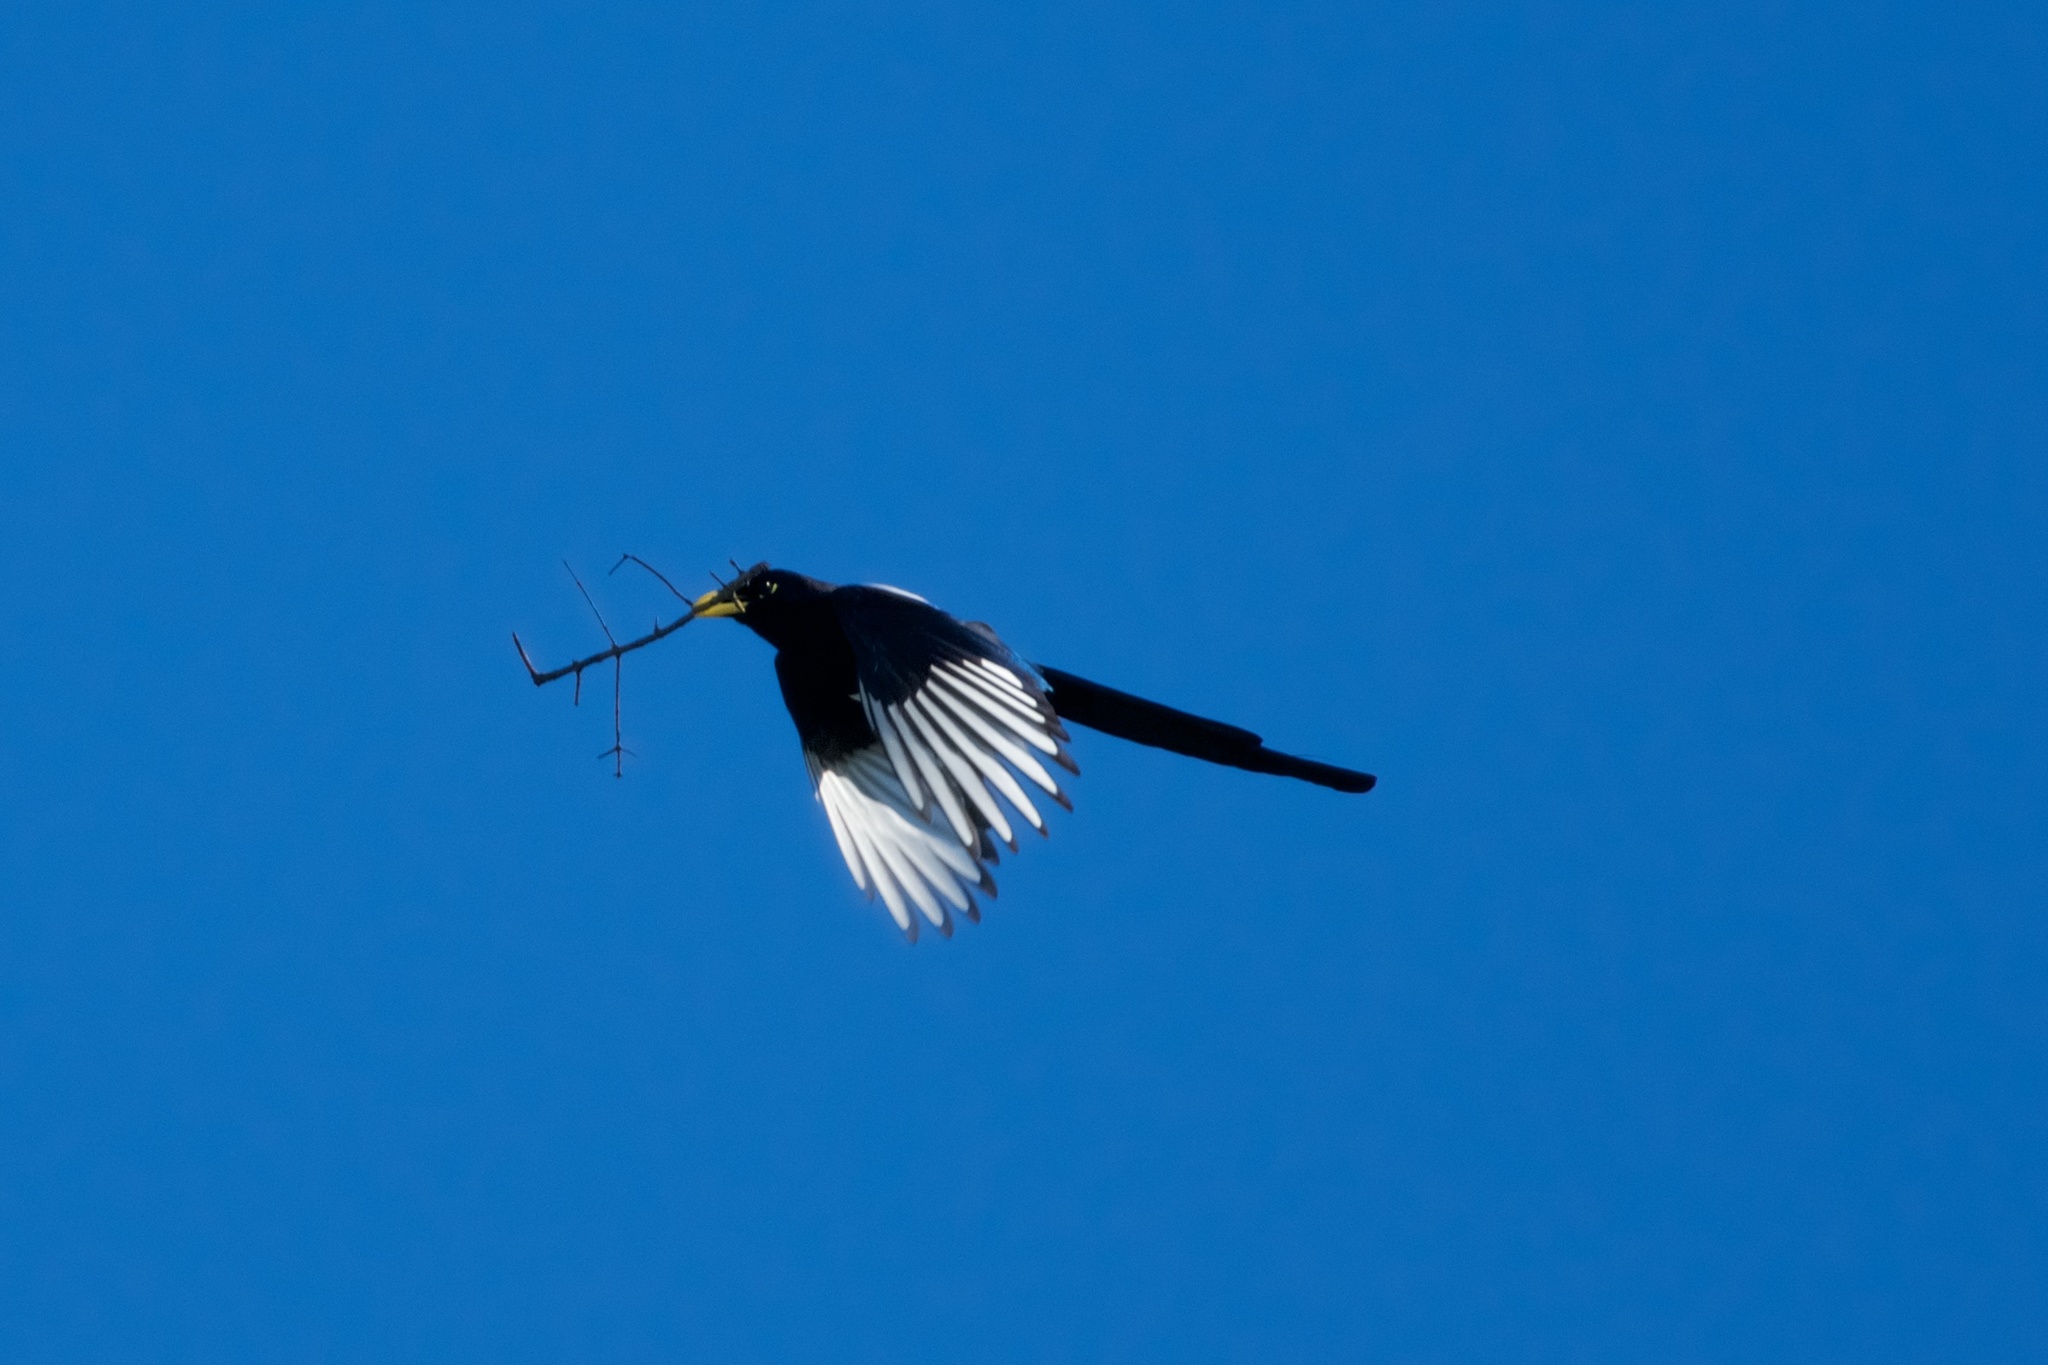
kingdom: Animalia
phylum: Chordata
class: Aves
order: Passeriformes
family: Corvidae
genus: Pica
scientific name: Pica nuttalli
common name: Yellow-billed magpie
